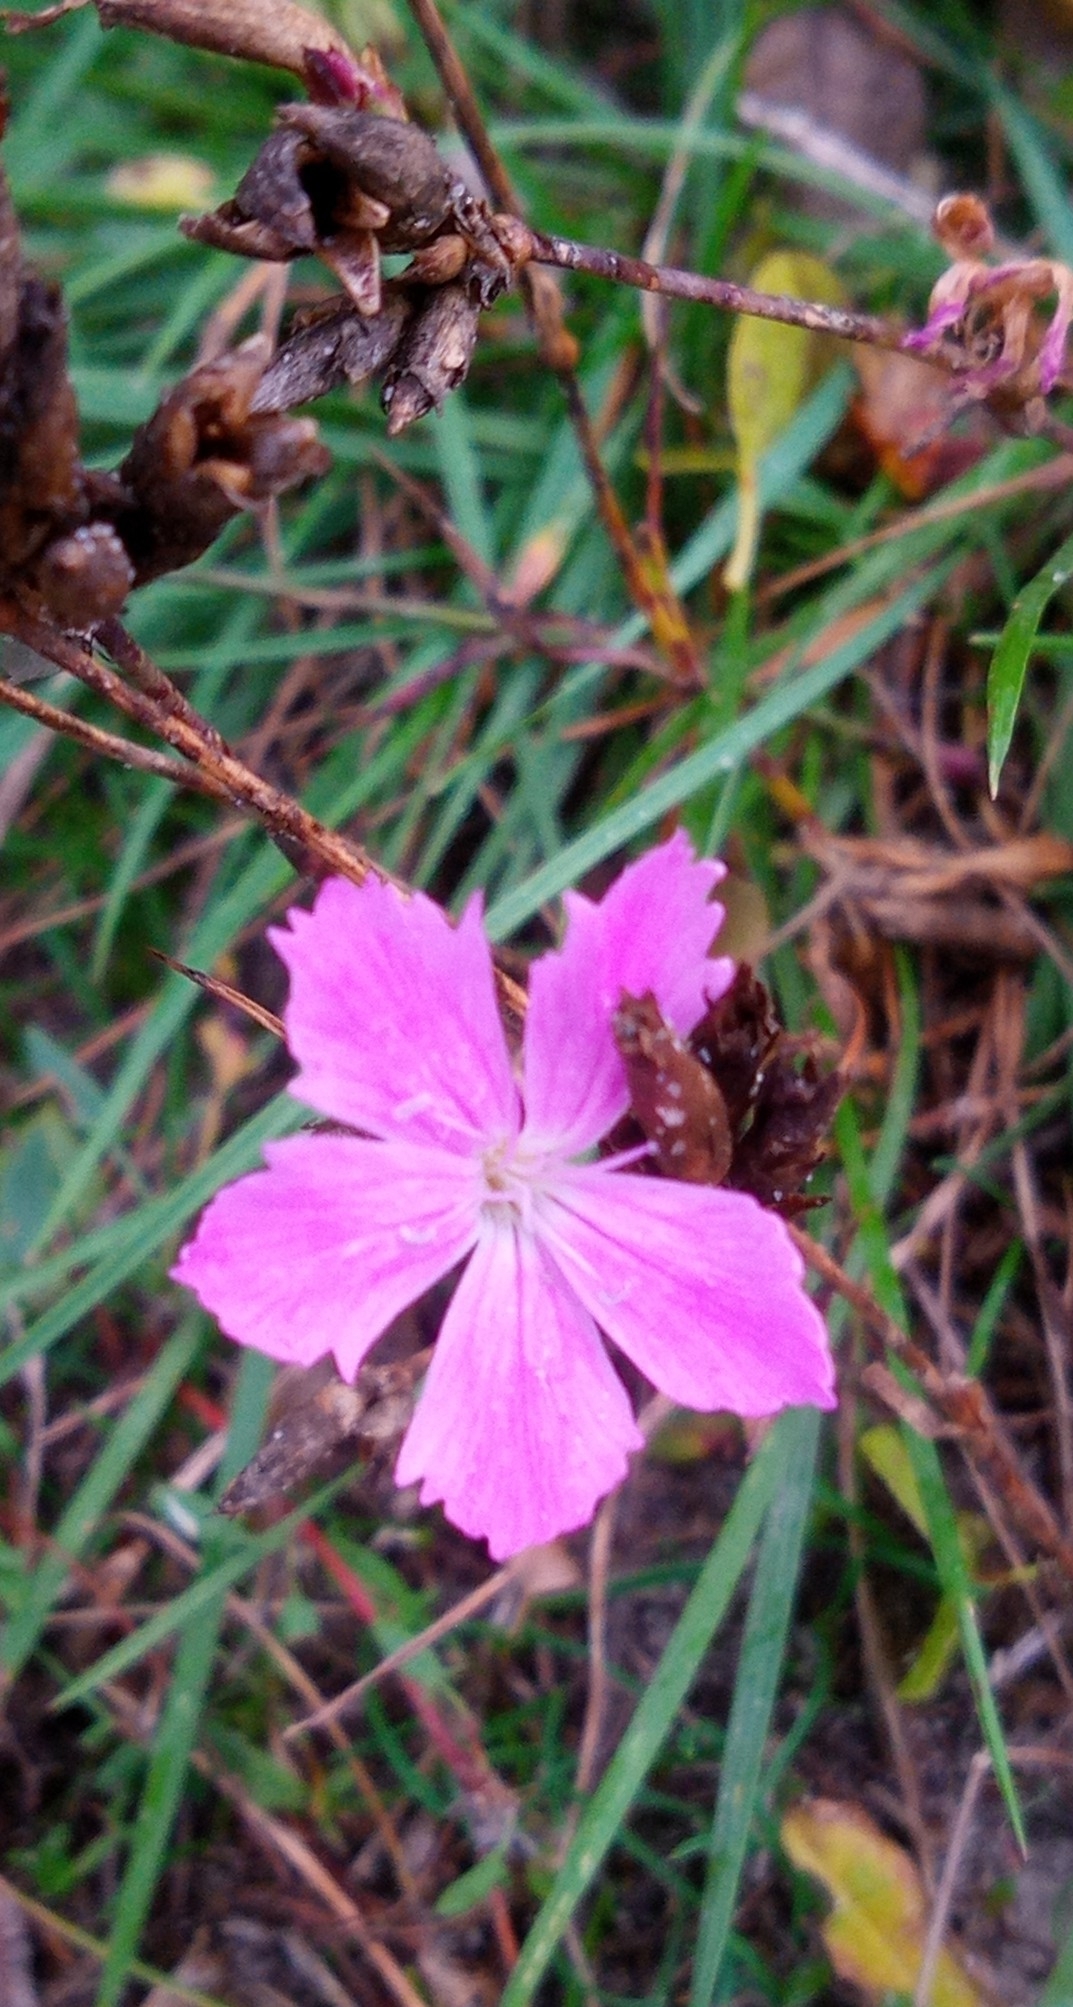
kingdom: Plantae
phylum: Tracheophyta
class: Magnoliopsida
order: Caryophyllales
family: Caryophyllaceae
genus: Dianthus
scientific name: Dianthus carthusianorum
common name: Carthusian pink
